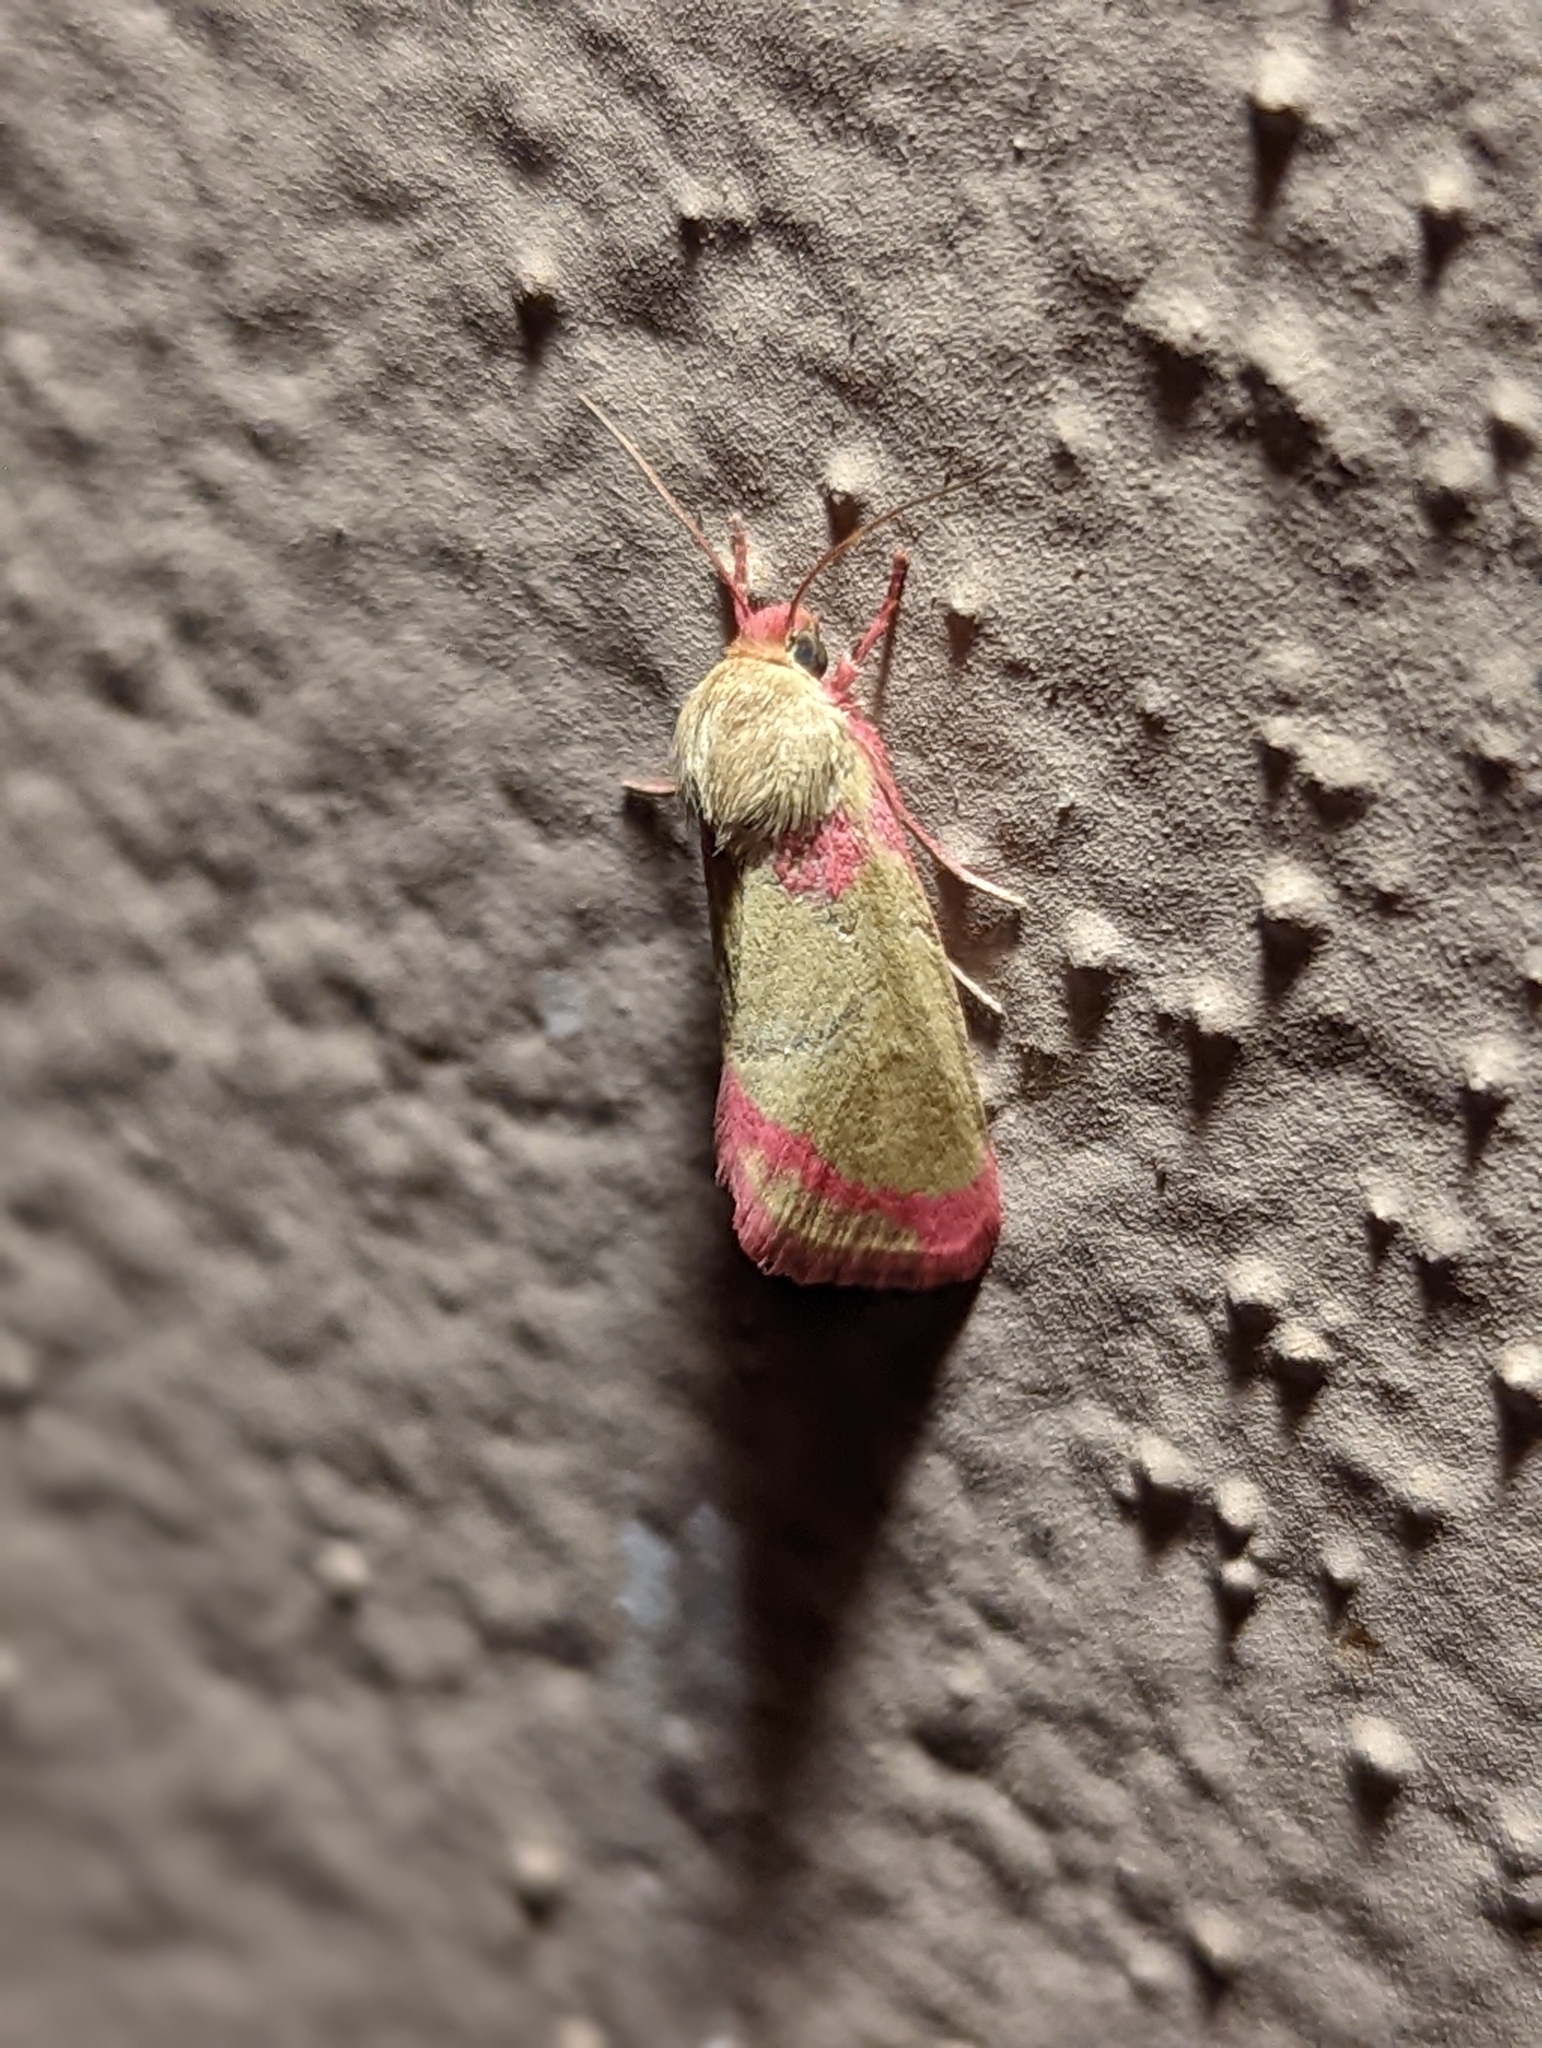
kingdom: Animalia
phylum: Arthropoda
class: Insecta
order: Lepidoptera
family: Noctuidae
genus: Heliocheilus
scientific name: Heliocheilus toralis
